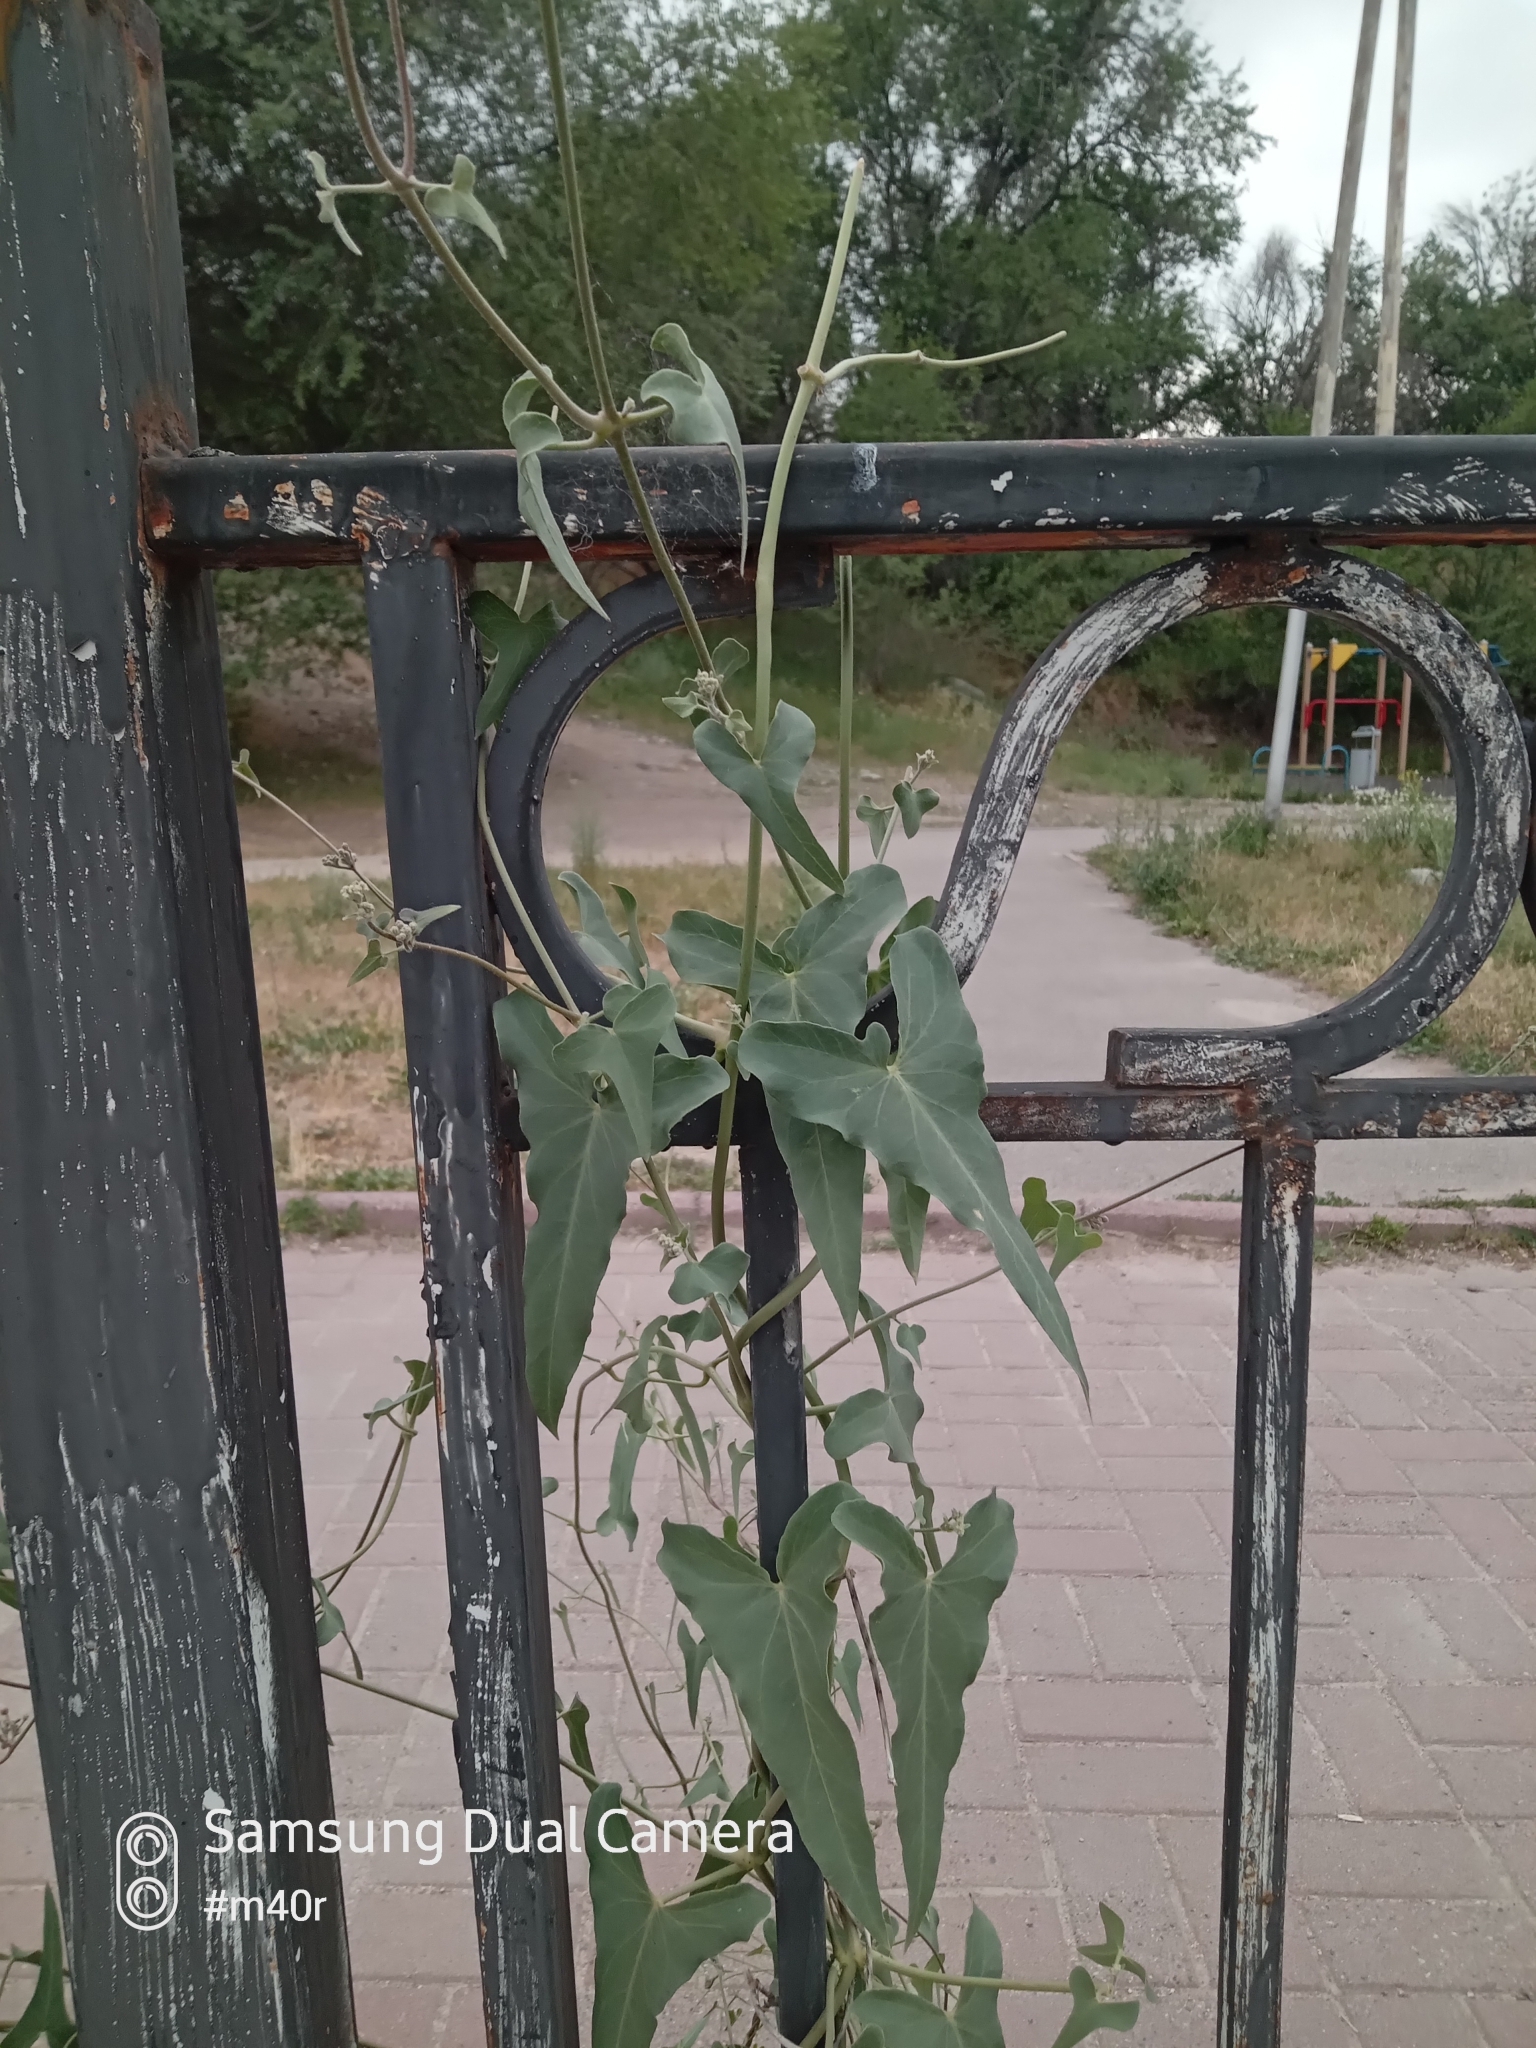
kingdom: Plantae
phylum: Tracheophyta
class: Magnoliopsida
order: Gentianales
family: Apocynaceae
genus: Cynanchum
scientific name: Cynanchum acutum
